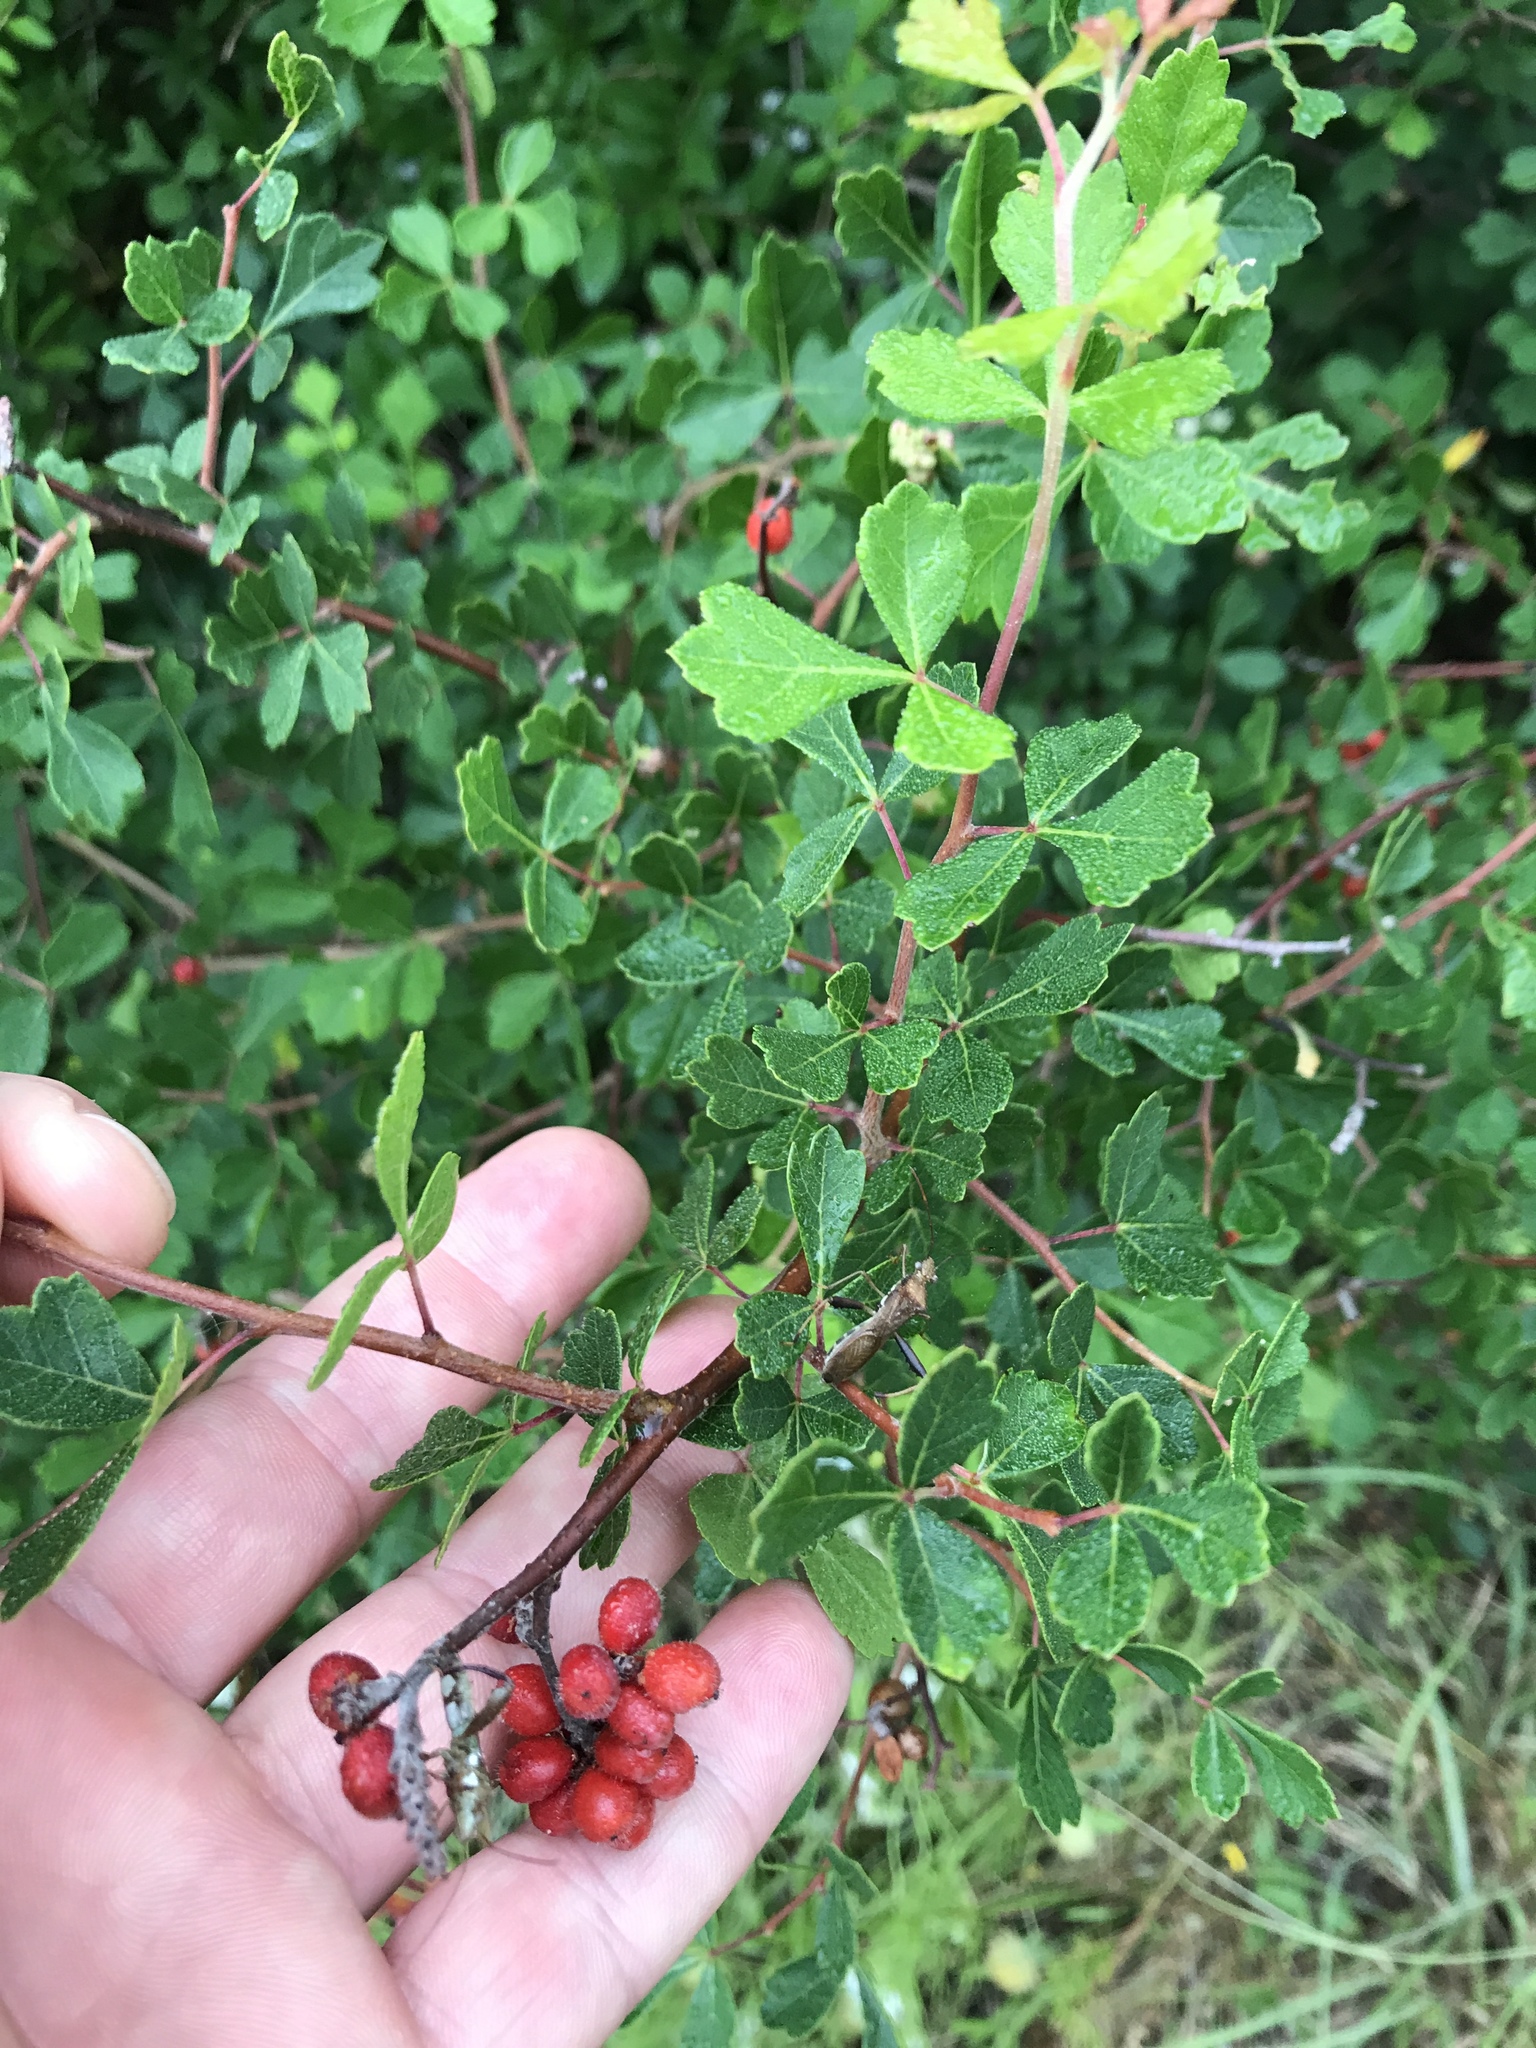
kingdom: Plantae
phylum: Tracheophyta
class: Magnoliopsida
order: Sapindales
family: Anacardiaceae
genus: Rhus
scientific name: Rhus aromatica
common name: Aromatic sumac
